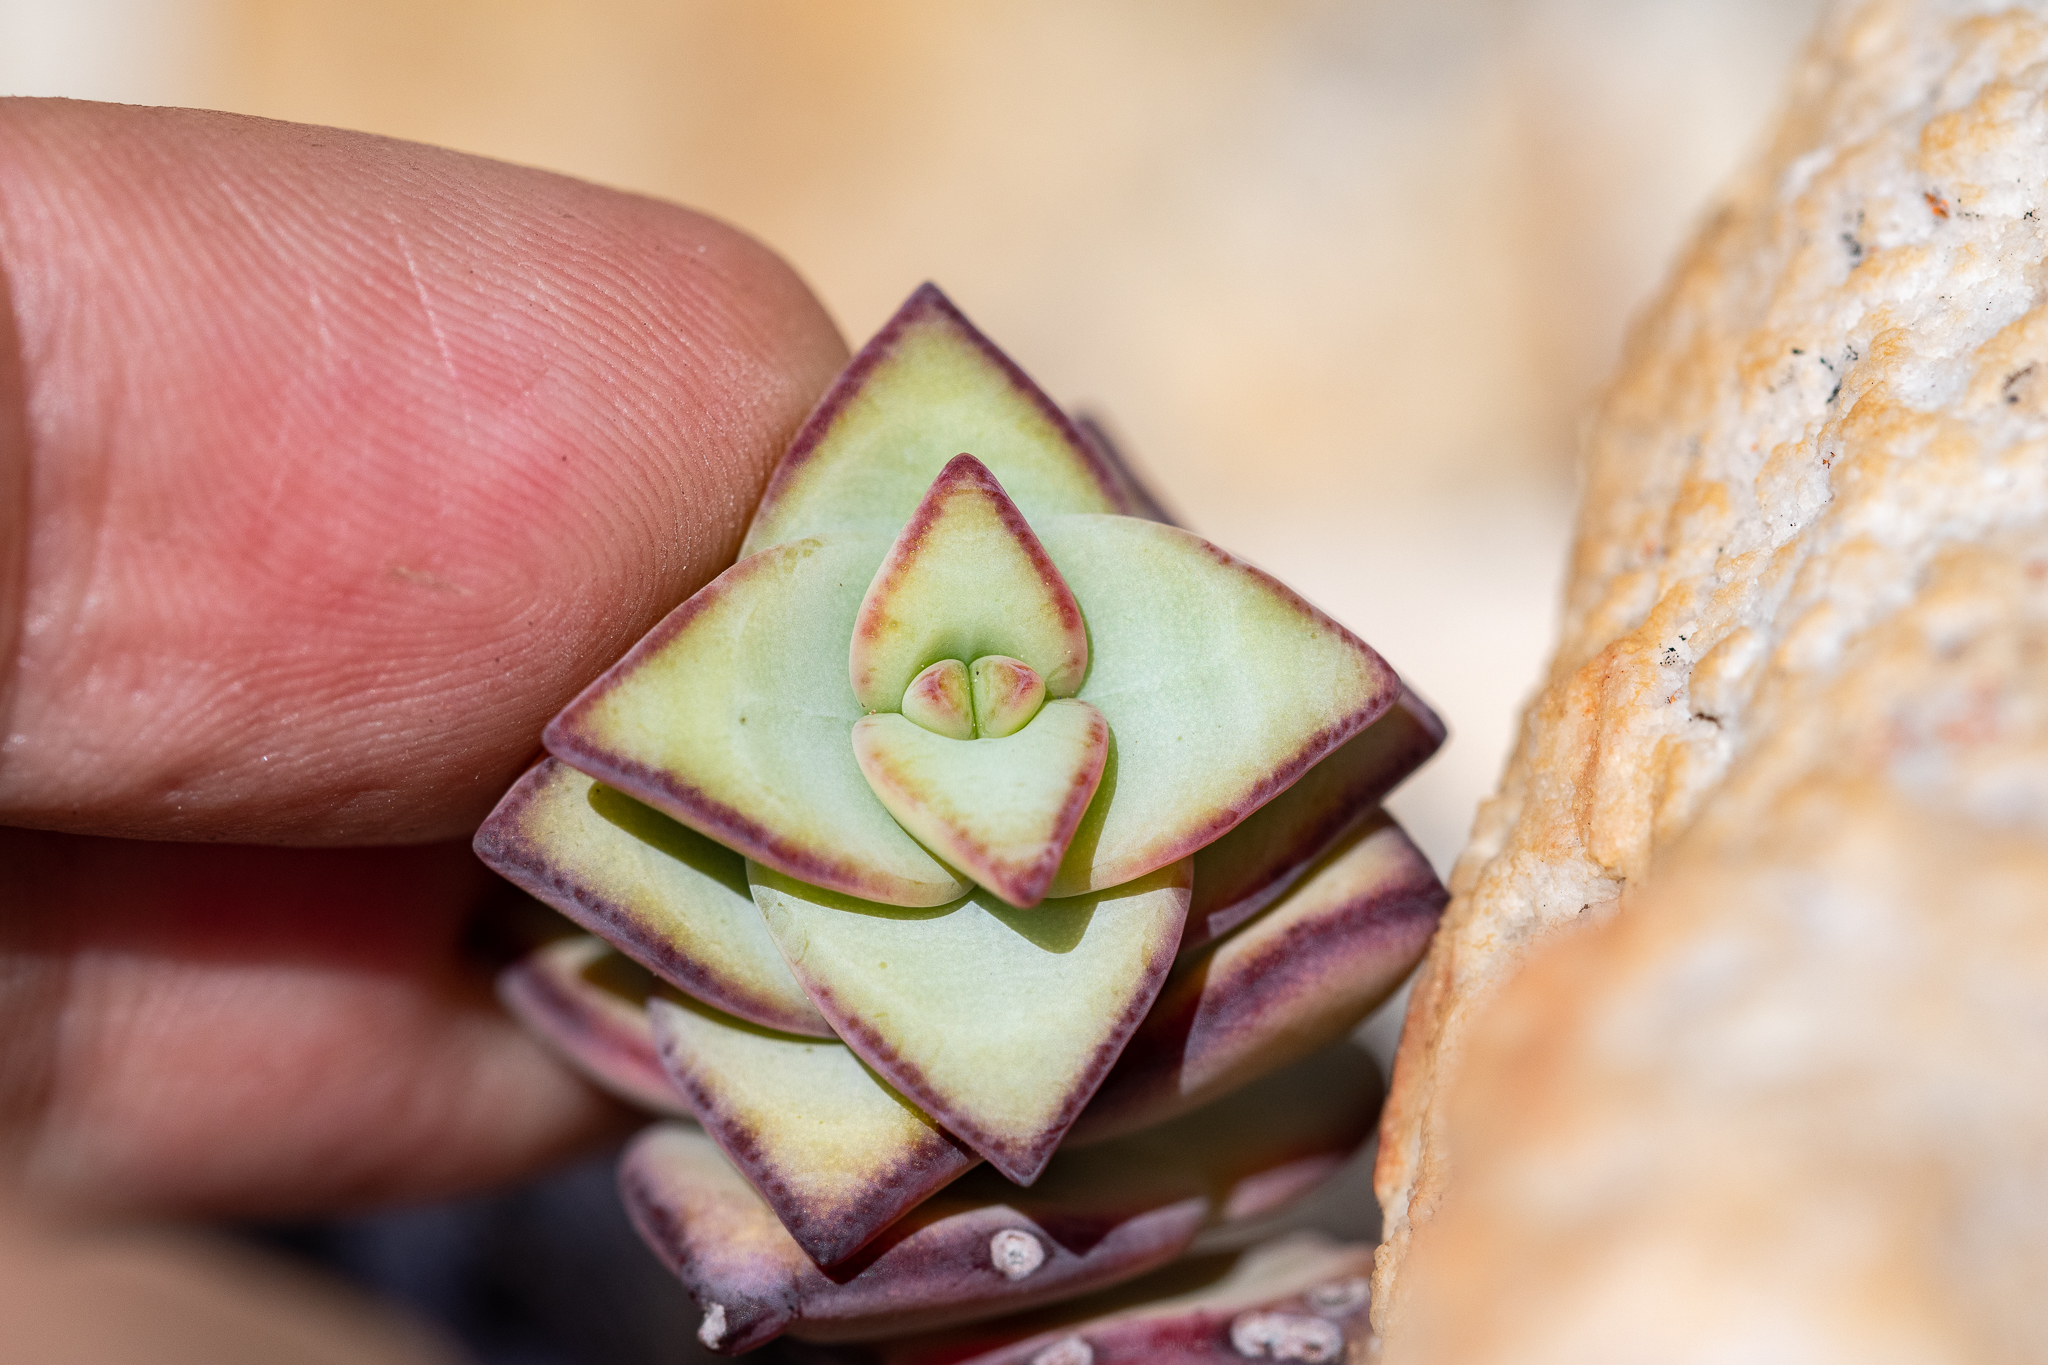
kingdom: Plantae
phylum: Tracheophyta
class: Magnoliopsida
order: Saxifragales
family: Crassulaceae
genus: Crassula
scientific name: Crassula rupestris
